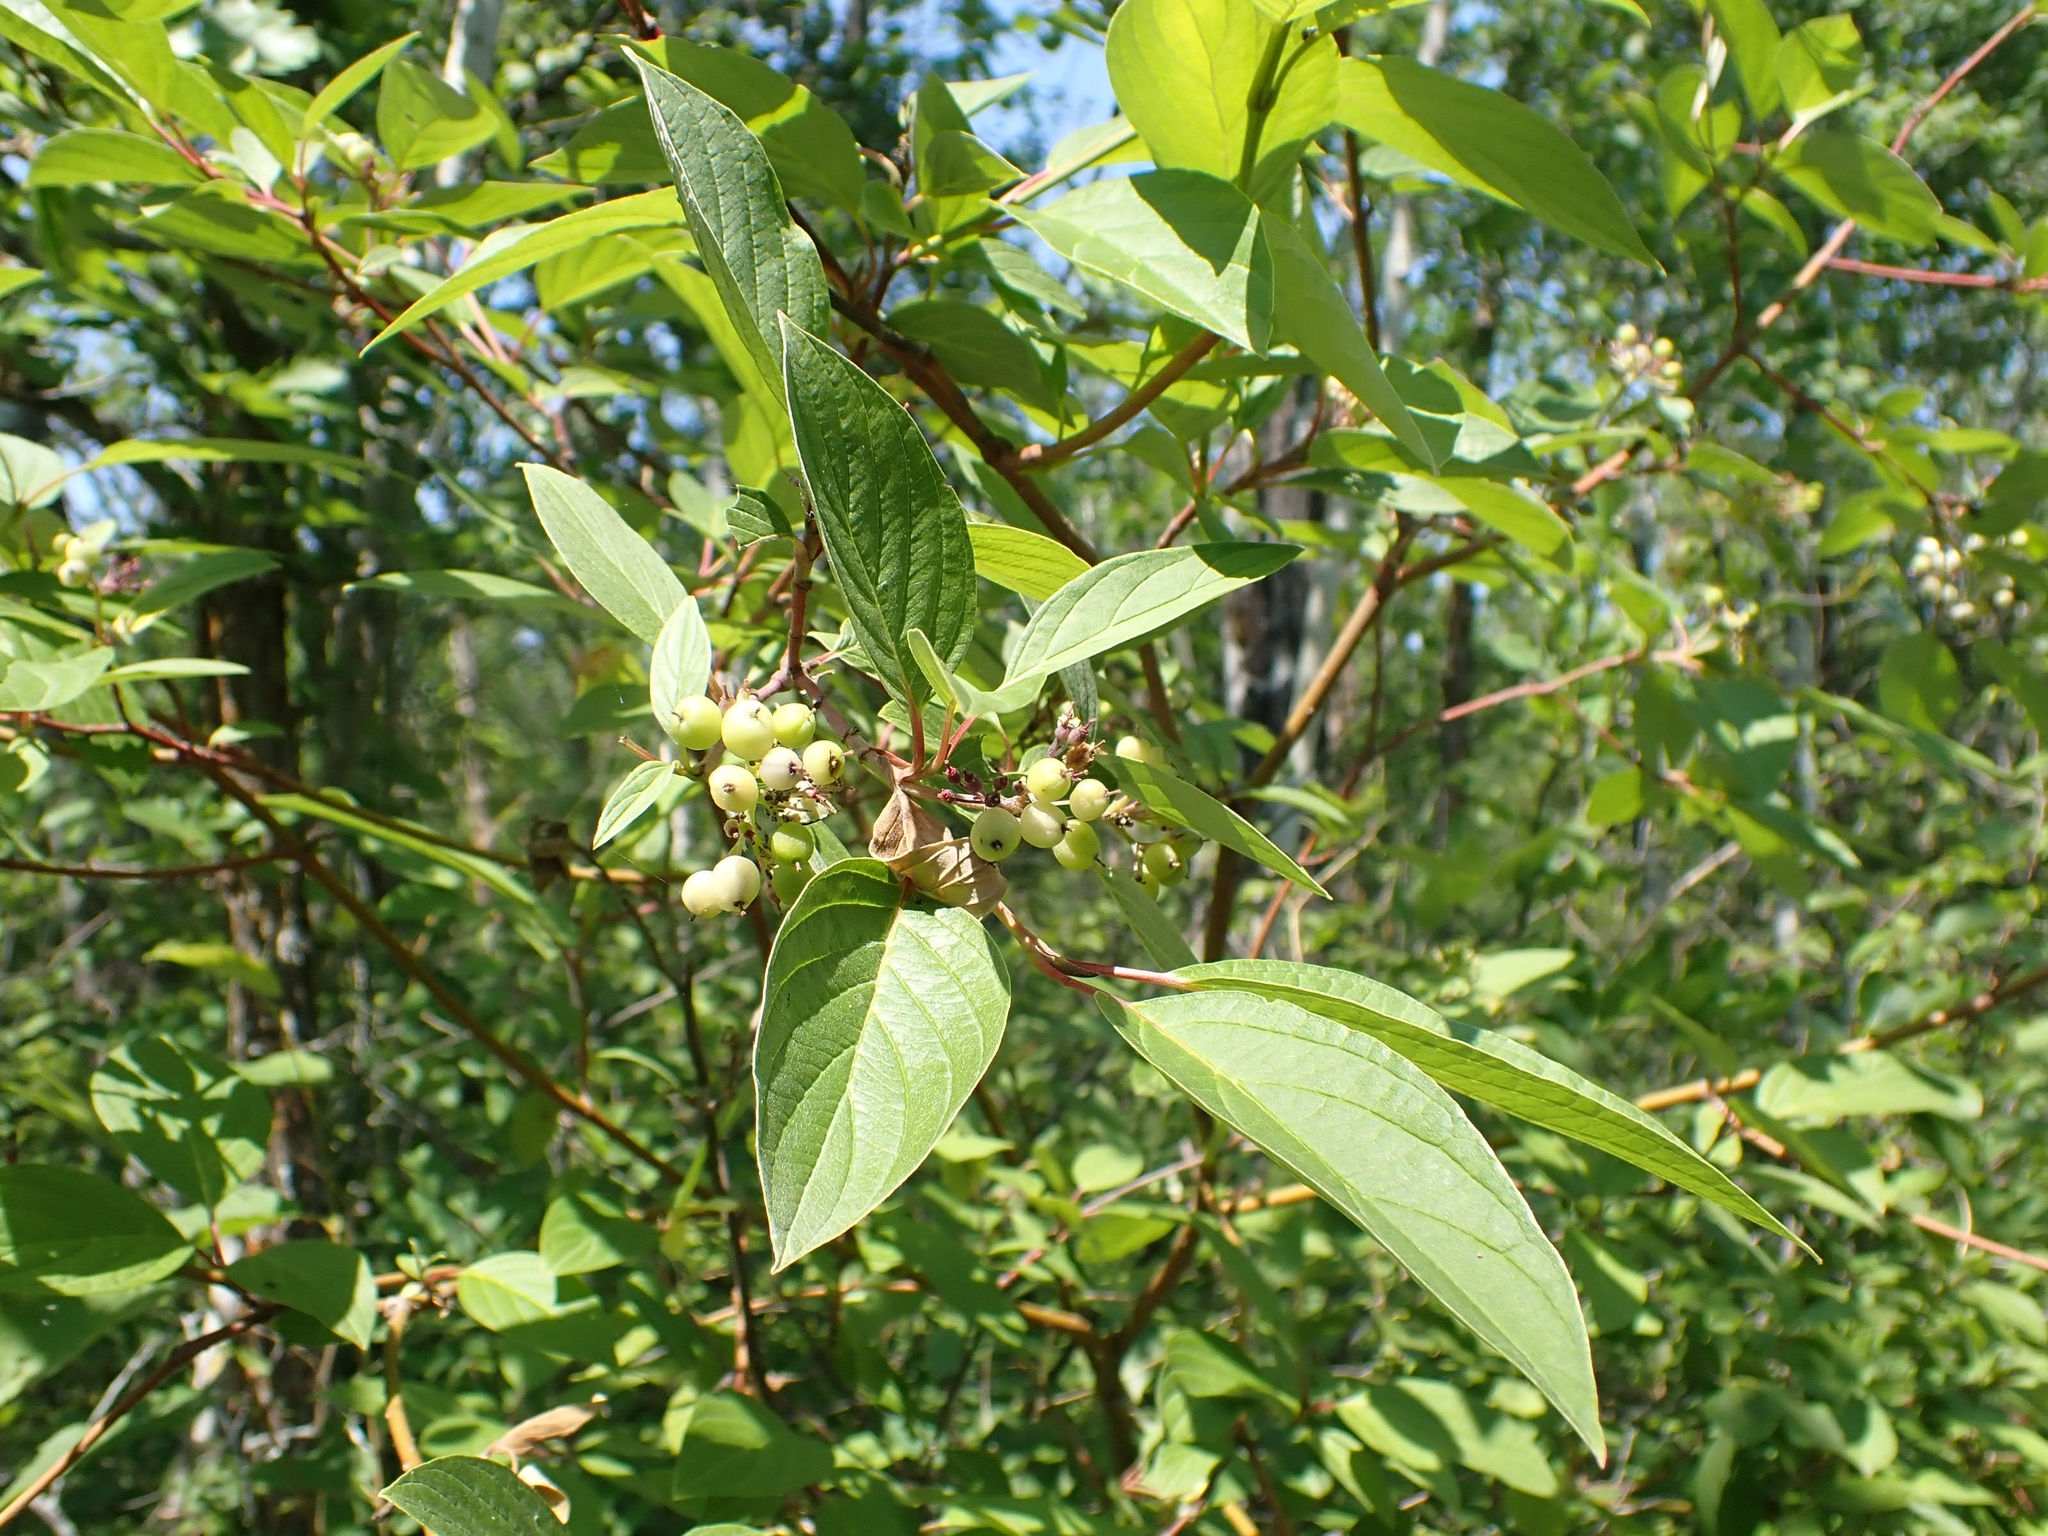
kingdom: Plantae
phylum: Tracheophyta
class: Magnoliopsida
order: Cornales
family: Cornaceae
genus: Cornus
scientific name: Cornus sericea
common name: Red-osier dogwood
